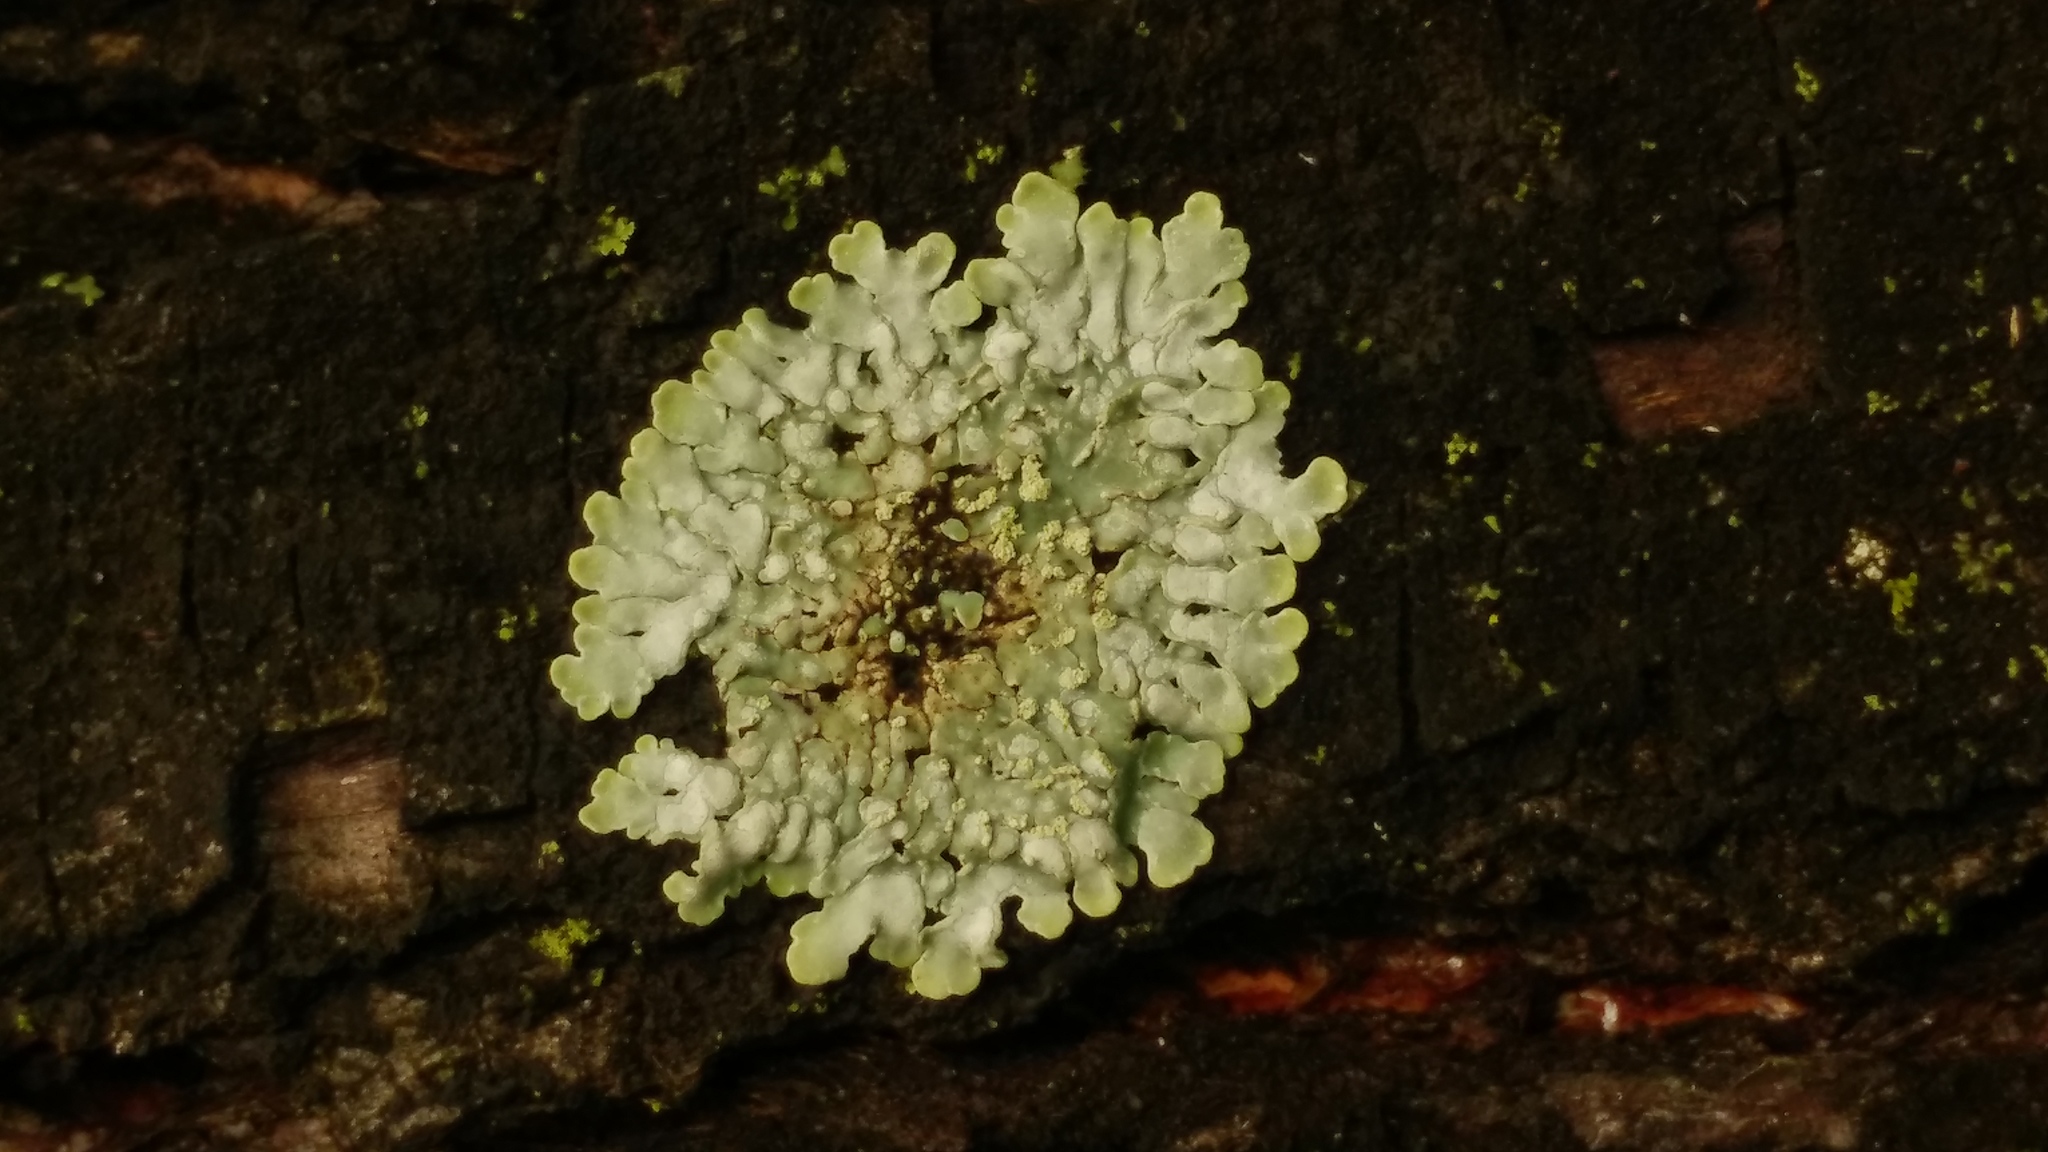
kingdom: Fungi
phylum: Ascomycota
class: Lecanoromycetes
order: Caliciales
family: Caliciaceae
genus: Pyxine
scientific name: Pyxine eschweileri
